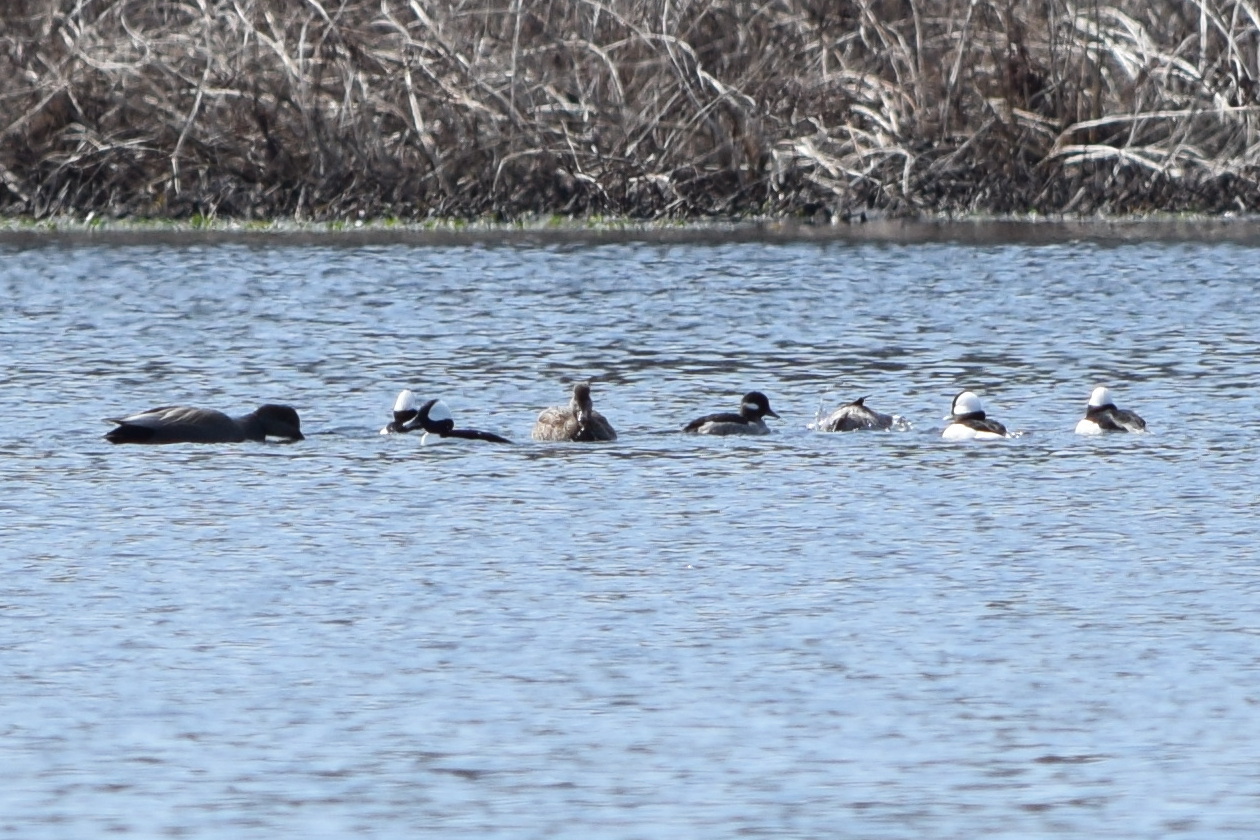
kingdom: Animalia
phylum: Chordata
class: Aves
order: Anseriformes
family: Anatidae
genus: Bucephala
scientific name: Bucephala albeola
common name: Bufflehead
